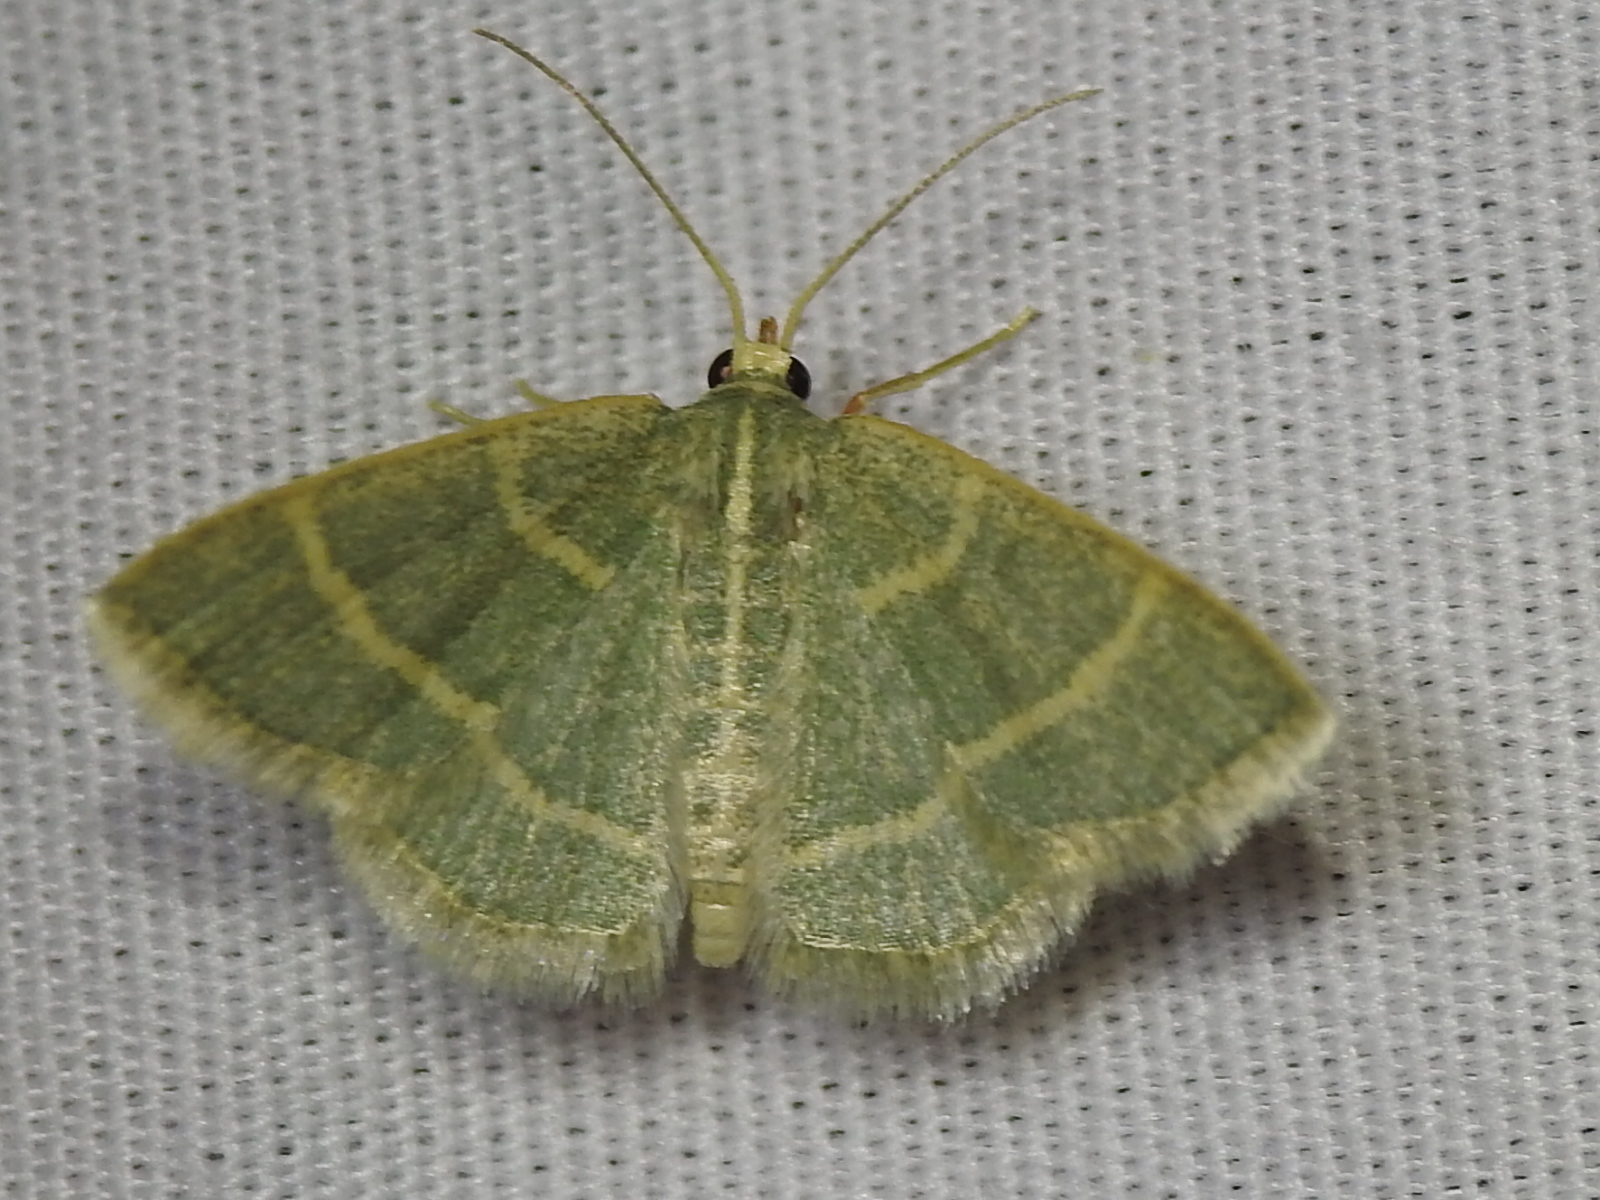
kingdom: Animalia
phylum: Arthropoda
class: Insecta
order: Lepidoptera
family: Geometridae
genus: Chlorochlamys
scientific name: Chlorochlamys chloroleucaria
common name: Blackberry looper
